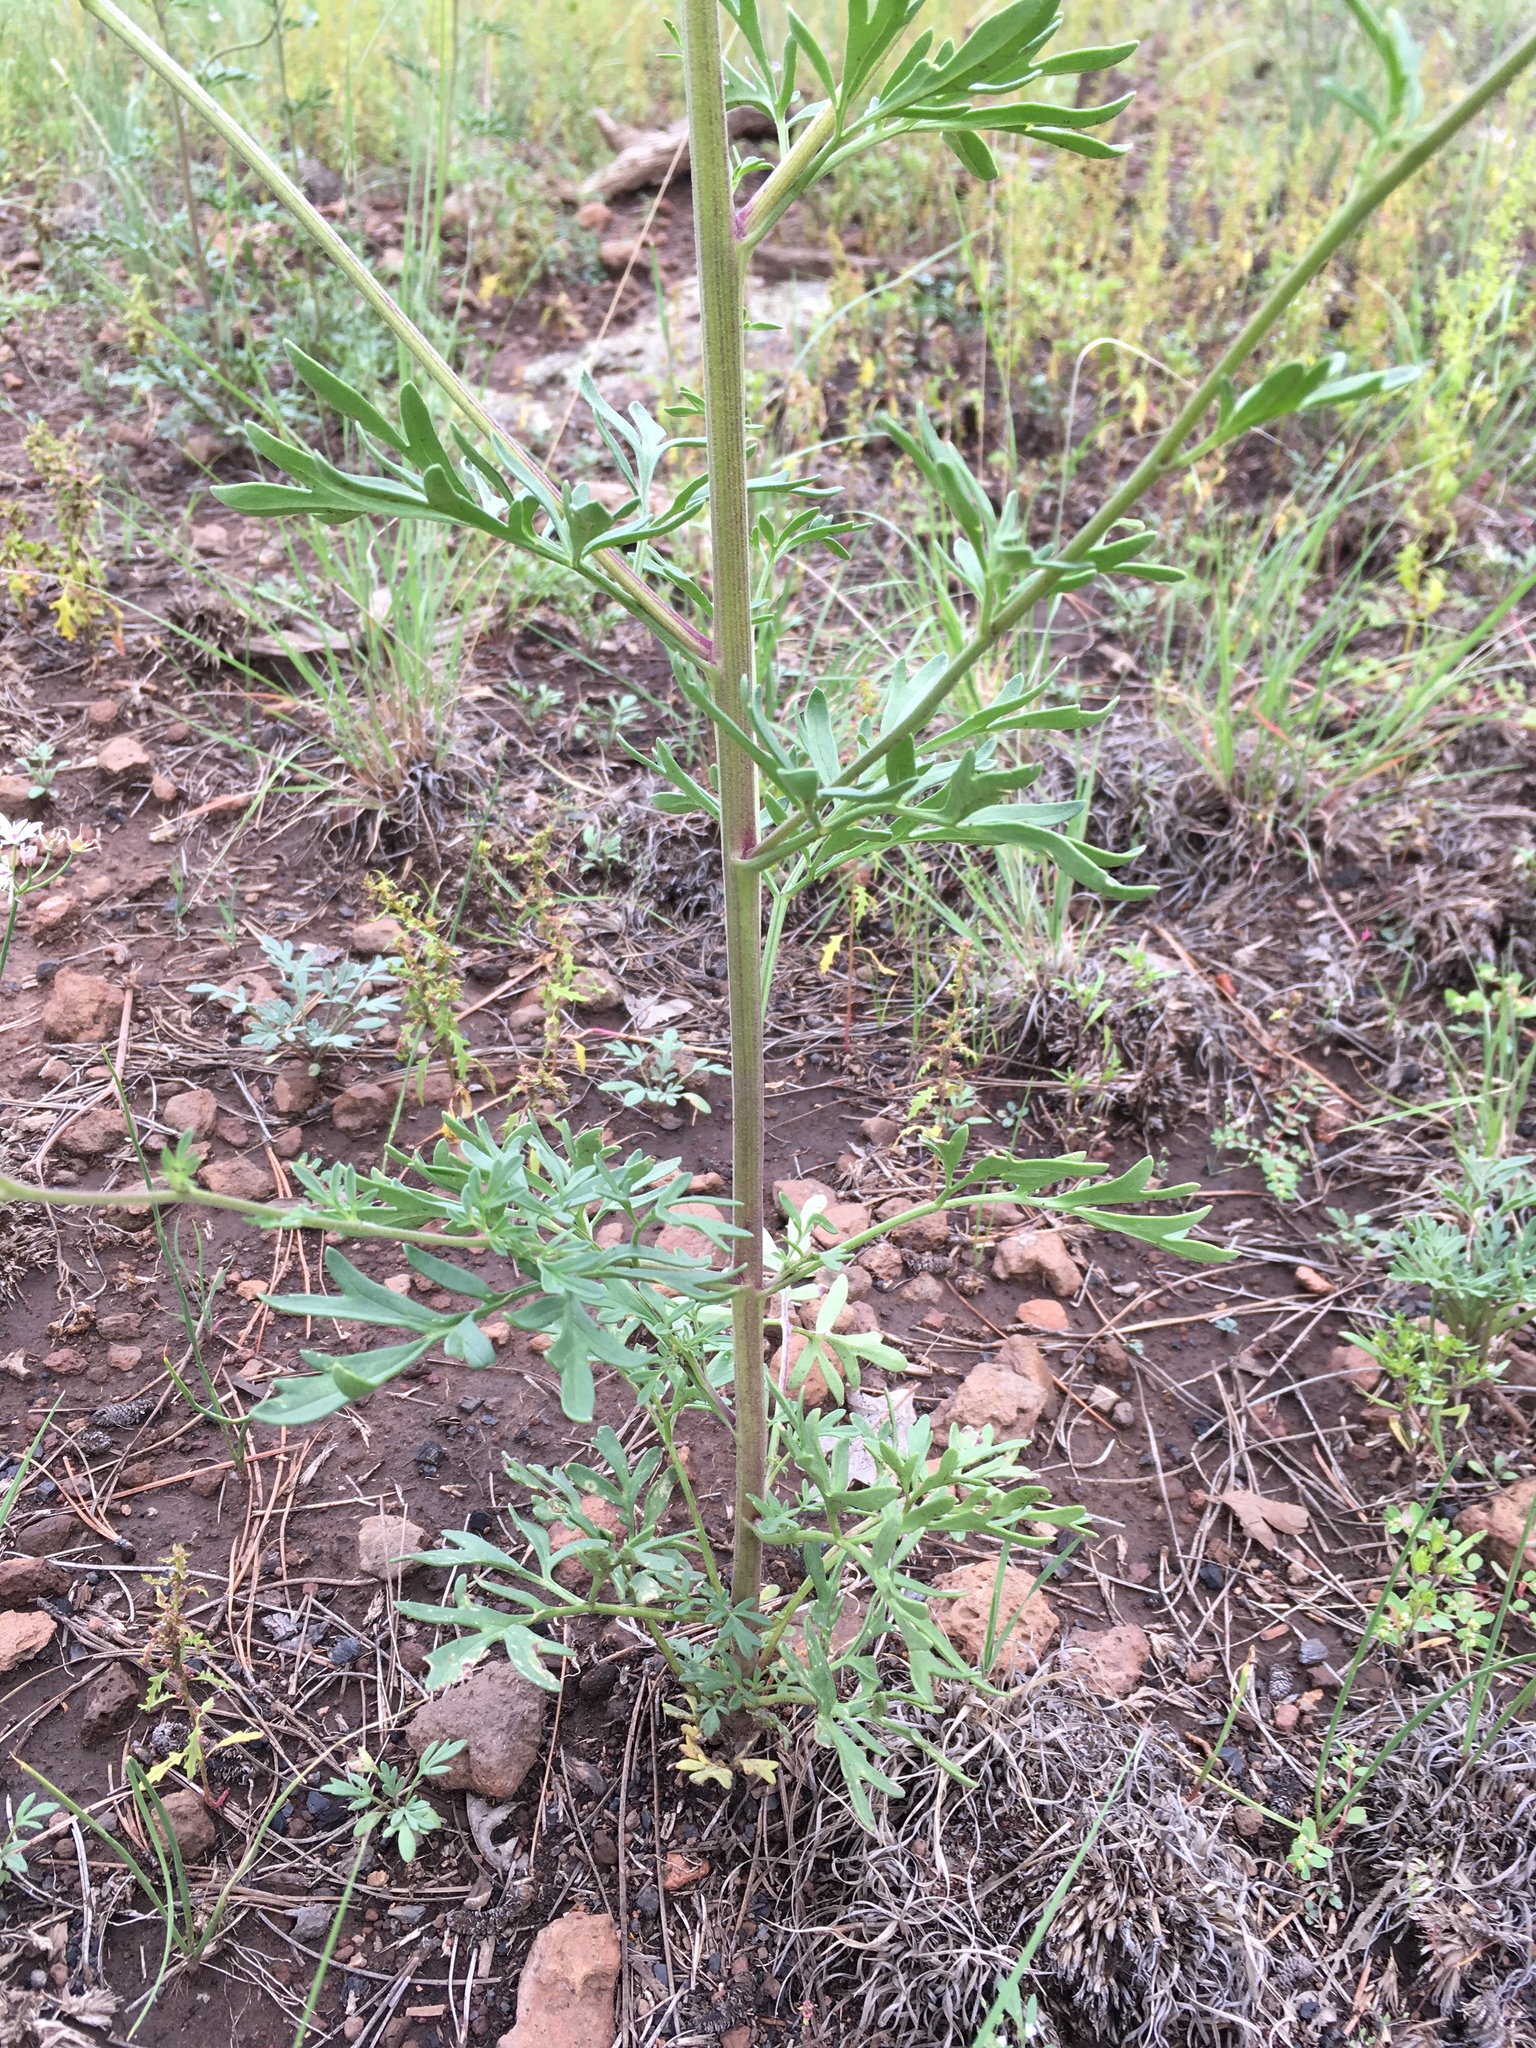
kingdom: Plantae
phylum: Tracheophyta
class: Magnoliopsida
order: Asterales
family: Asteraceae
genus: Hymenothrix
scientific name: Hymenothrix dissecta
